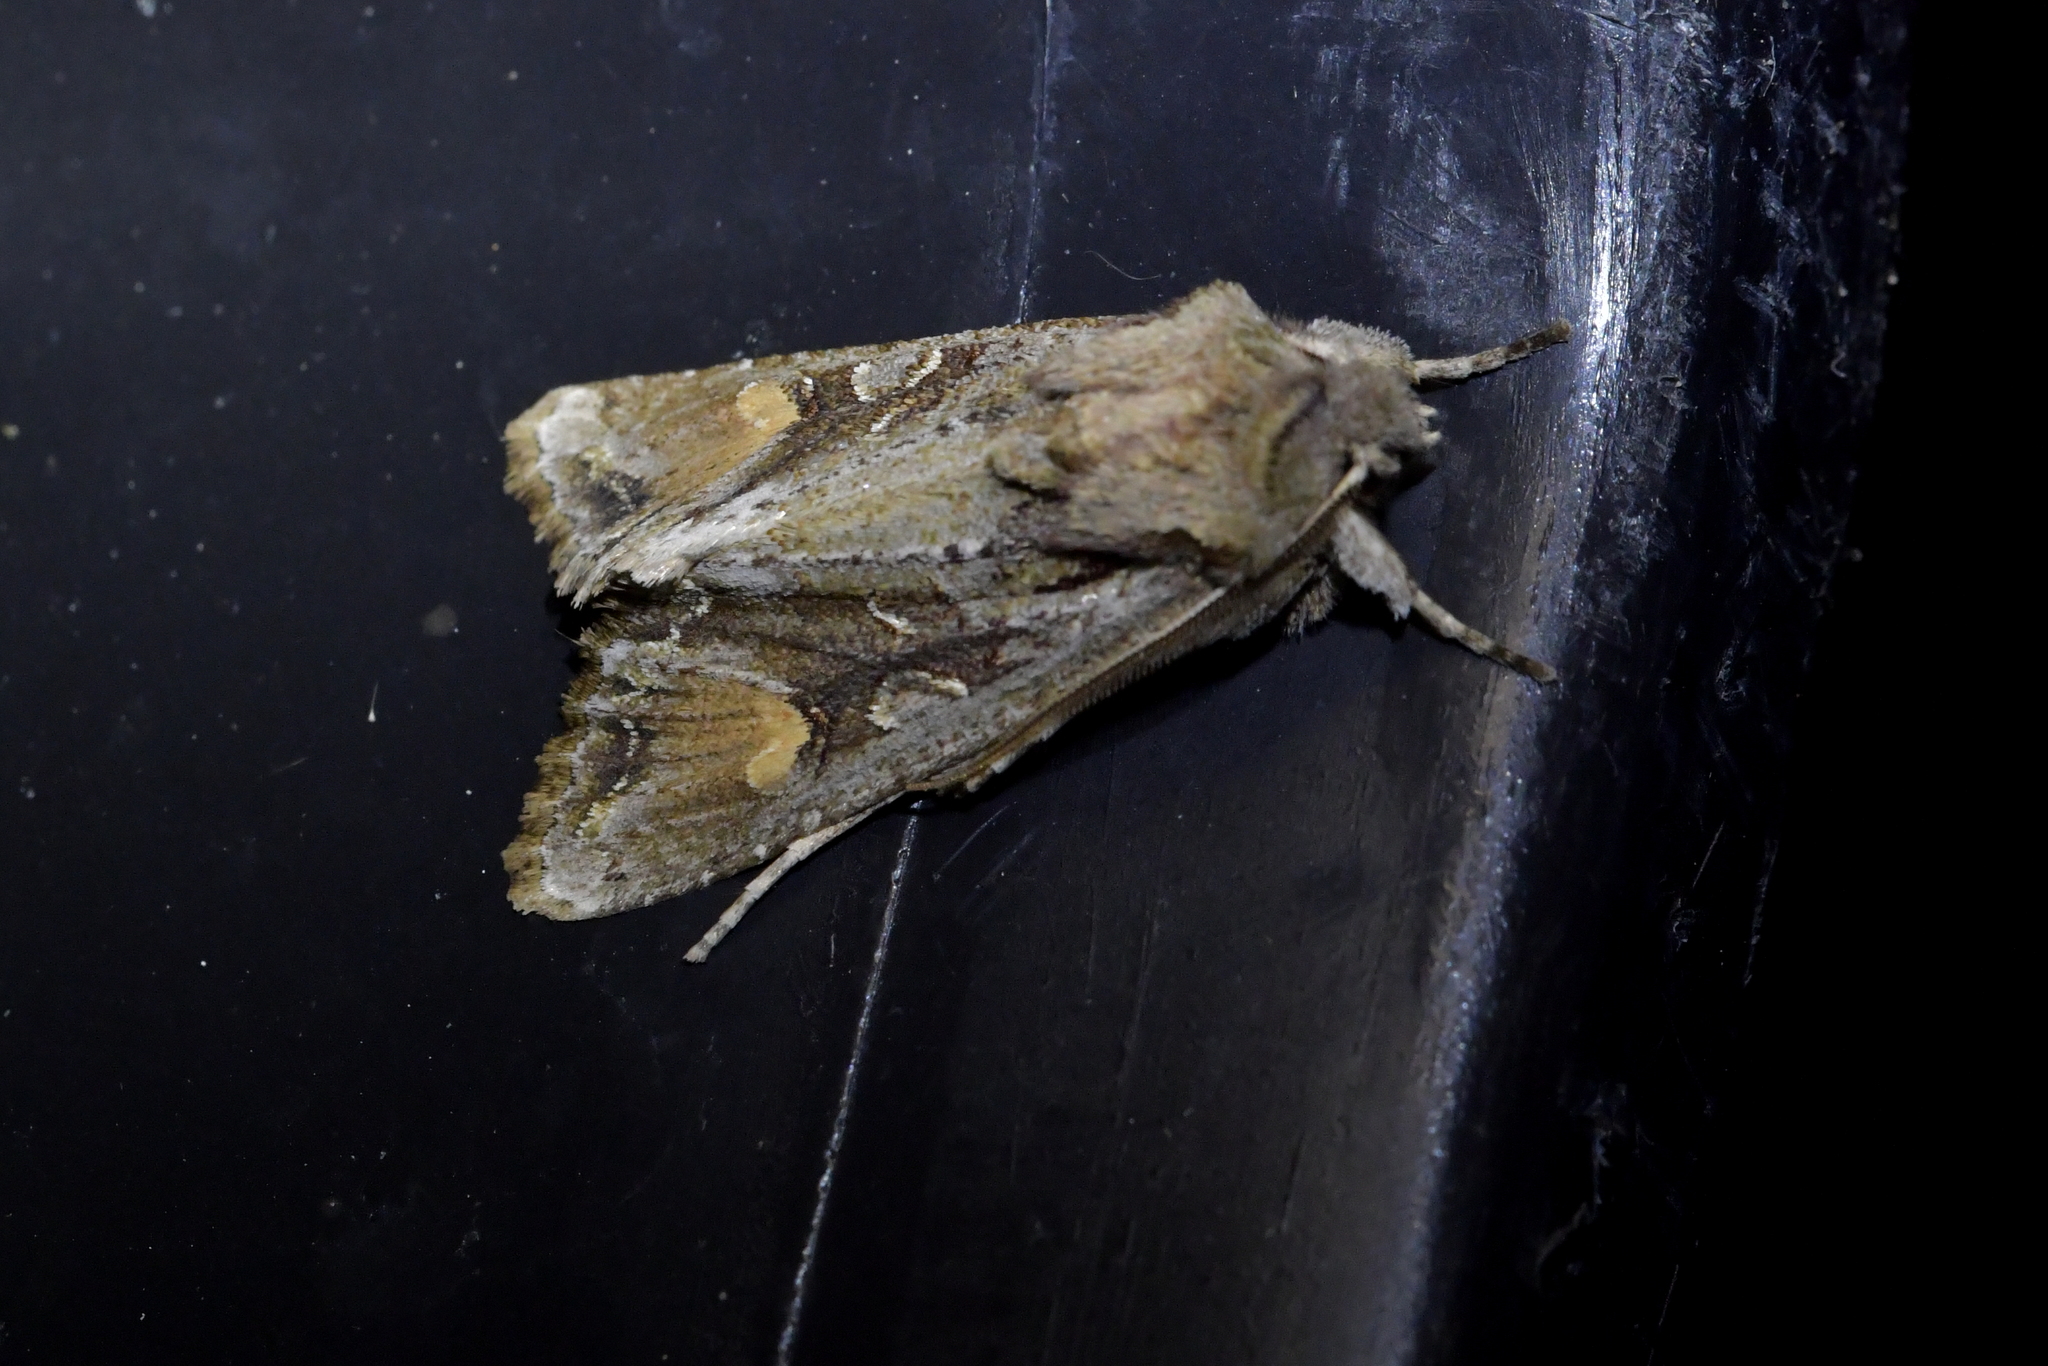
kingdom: Animalia
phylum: Arthropoda
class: Insecta
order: Lepidoptera
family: Noctuidae
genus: Ichneutica
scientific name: Ichneutica
